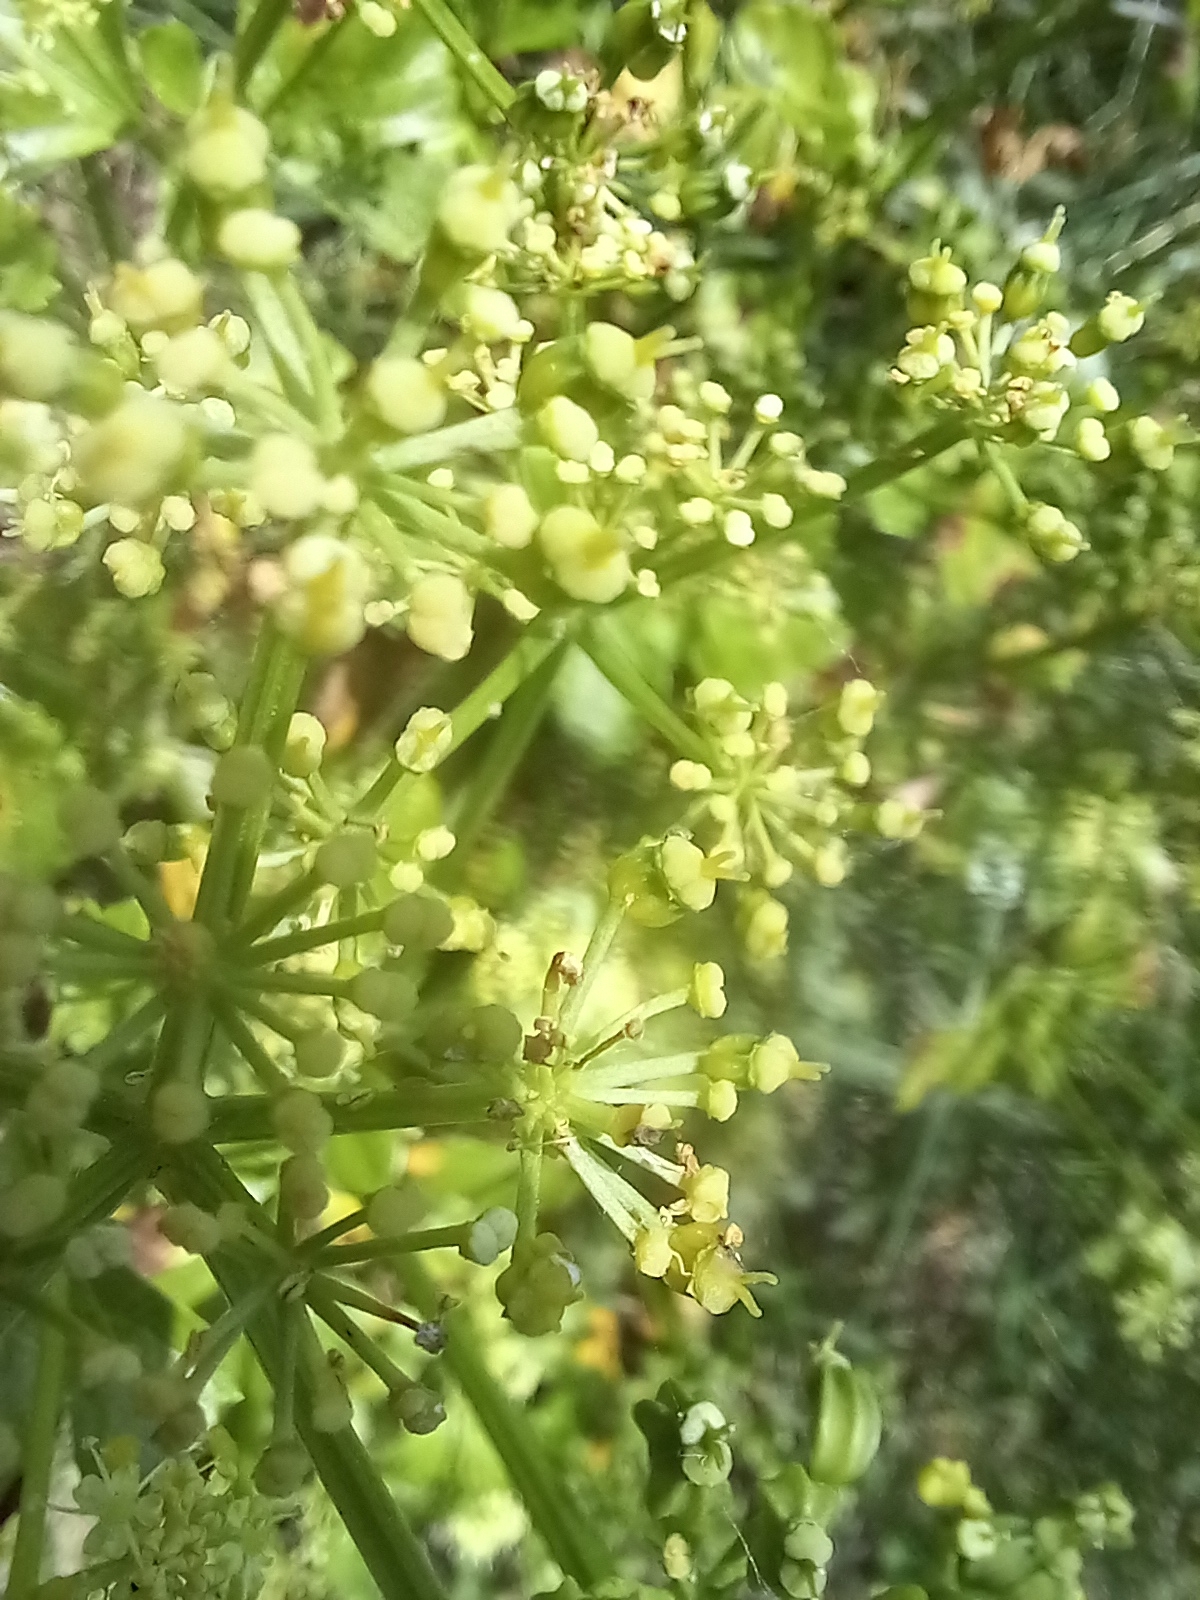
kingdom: Plantae
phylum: Tracheophyta
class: Magnoliopsida
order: Apiales
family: Apiaceae
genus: Smyrnium
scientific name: Smyrnium olusatrum
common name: Alexanders
